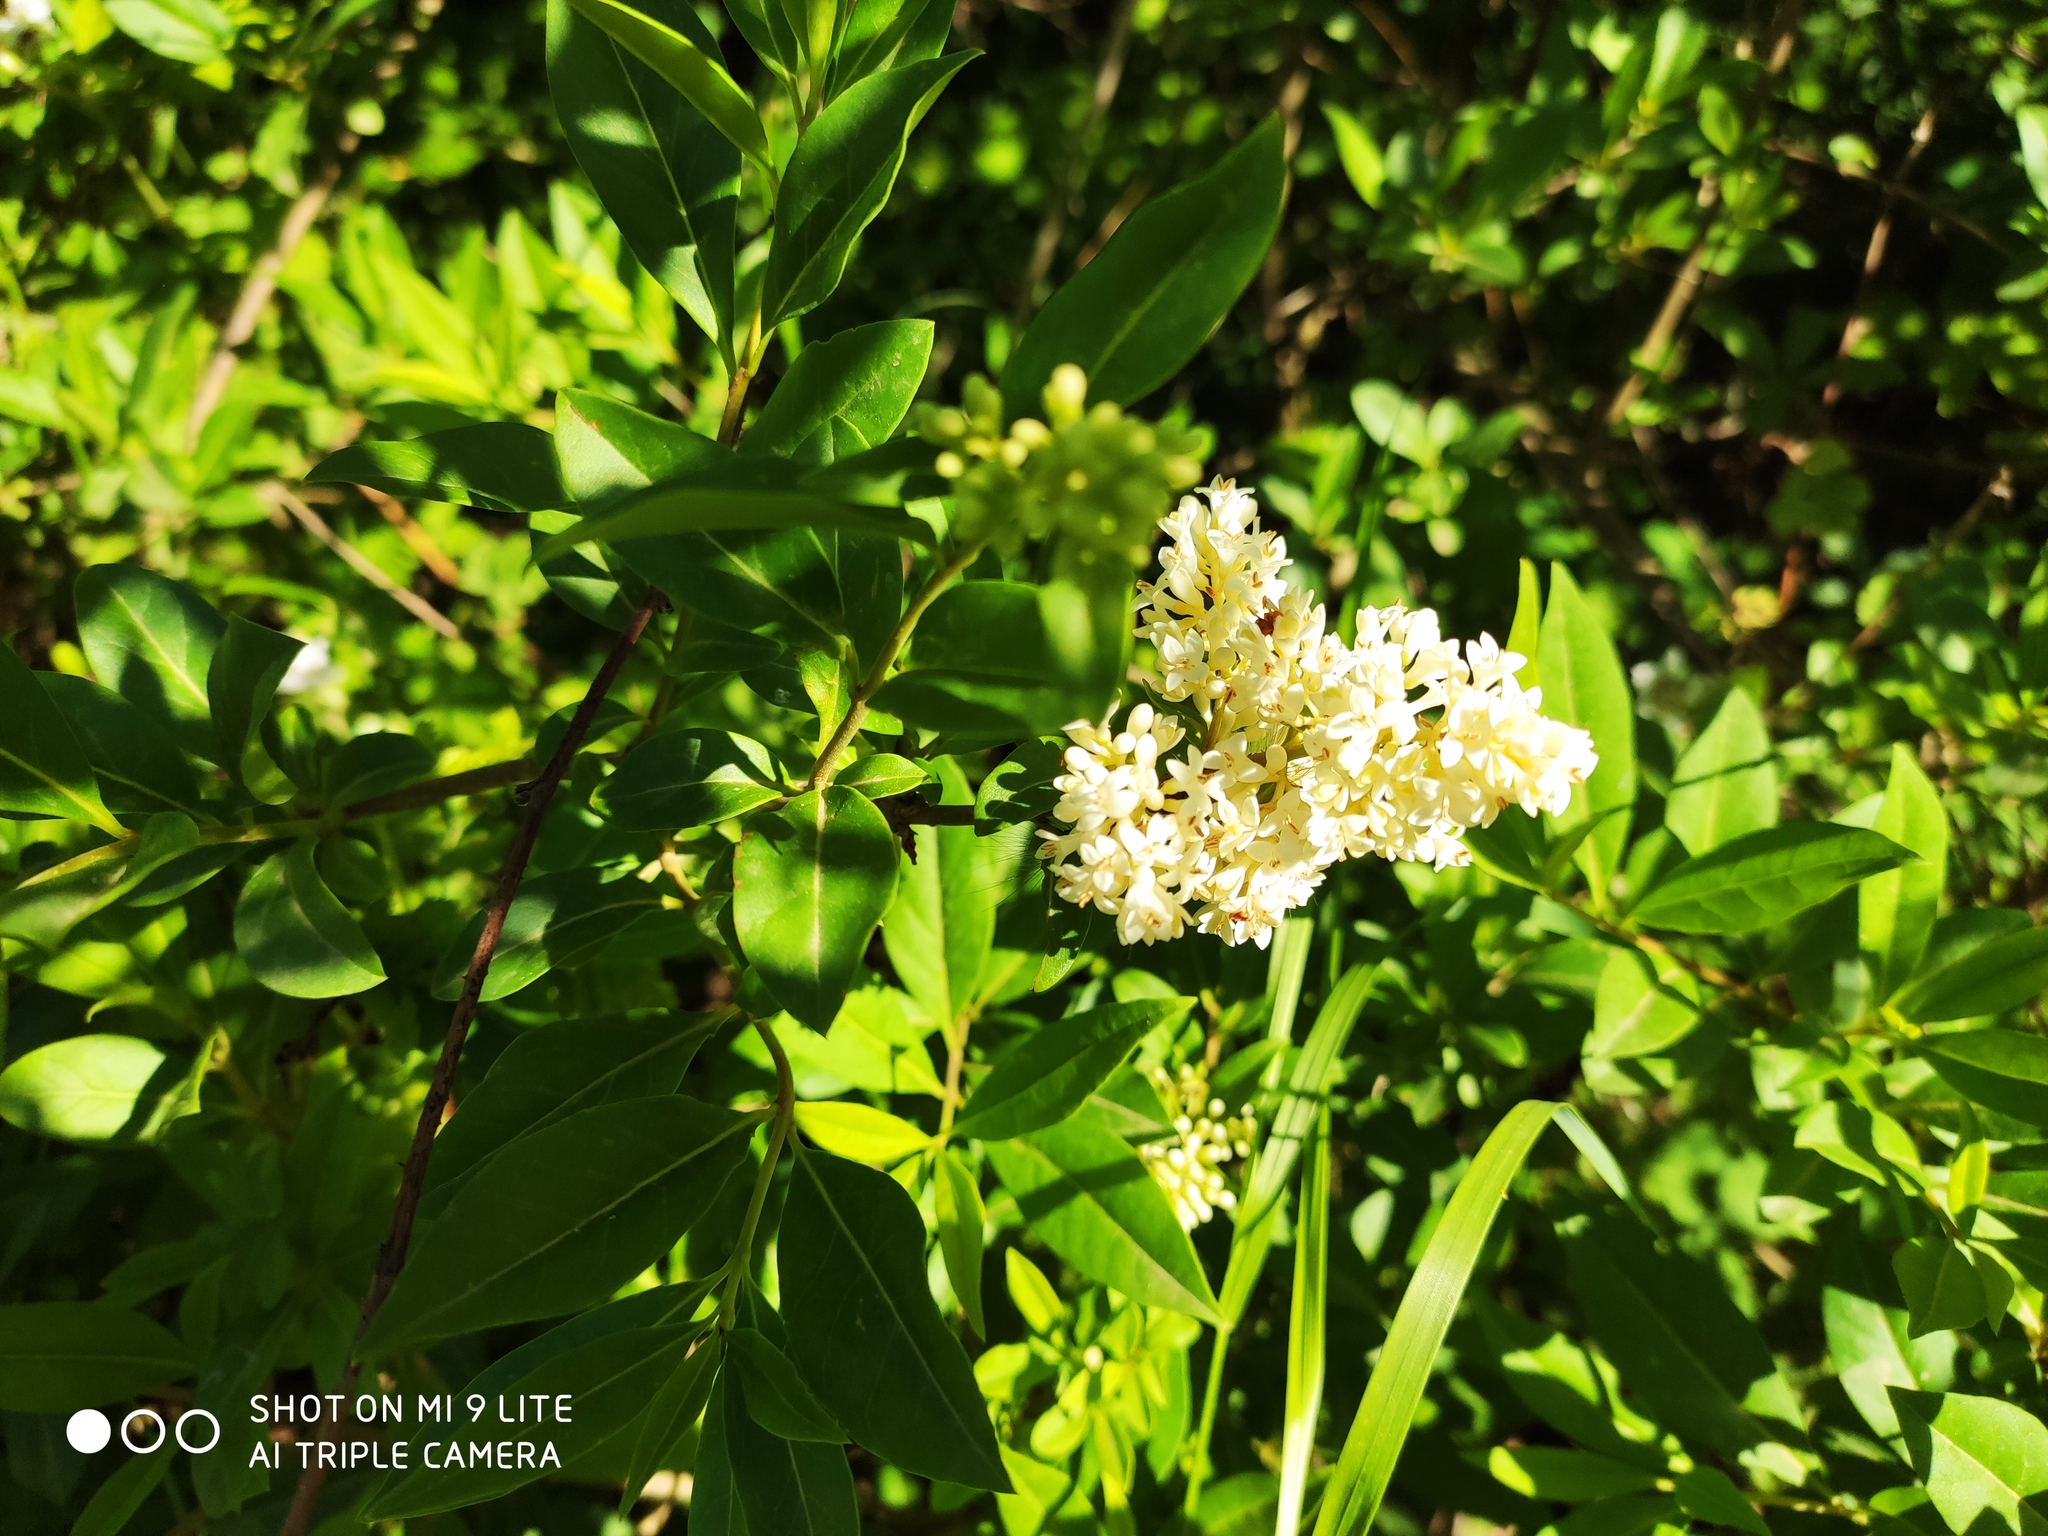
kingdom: Plantae
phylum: Tracheophyta
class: Magnoliopsida
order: Lamiales
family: Oleaceae
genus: Ligustrum
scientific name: Ligustrum vulgare
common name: Wild privet
